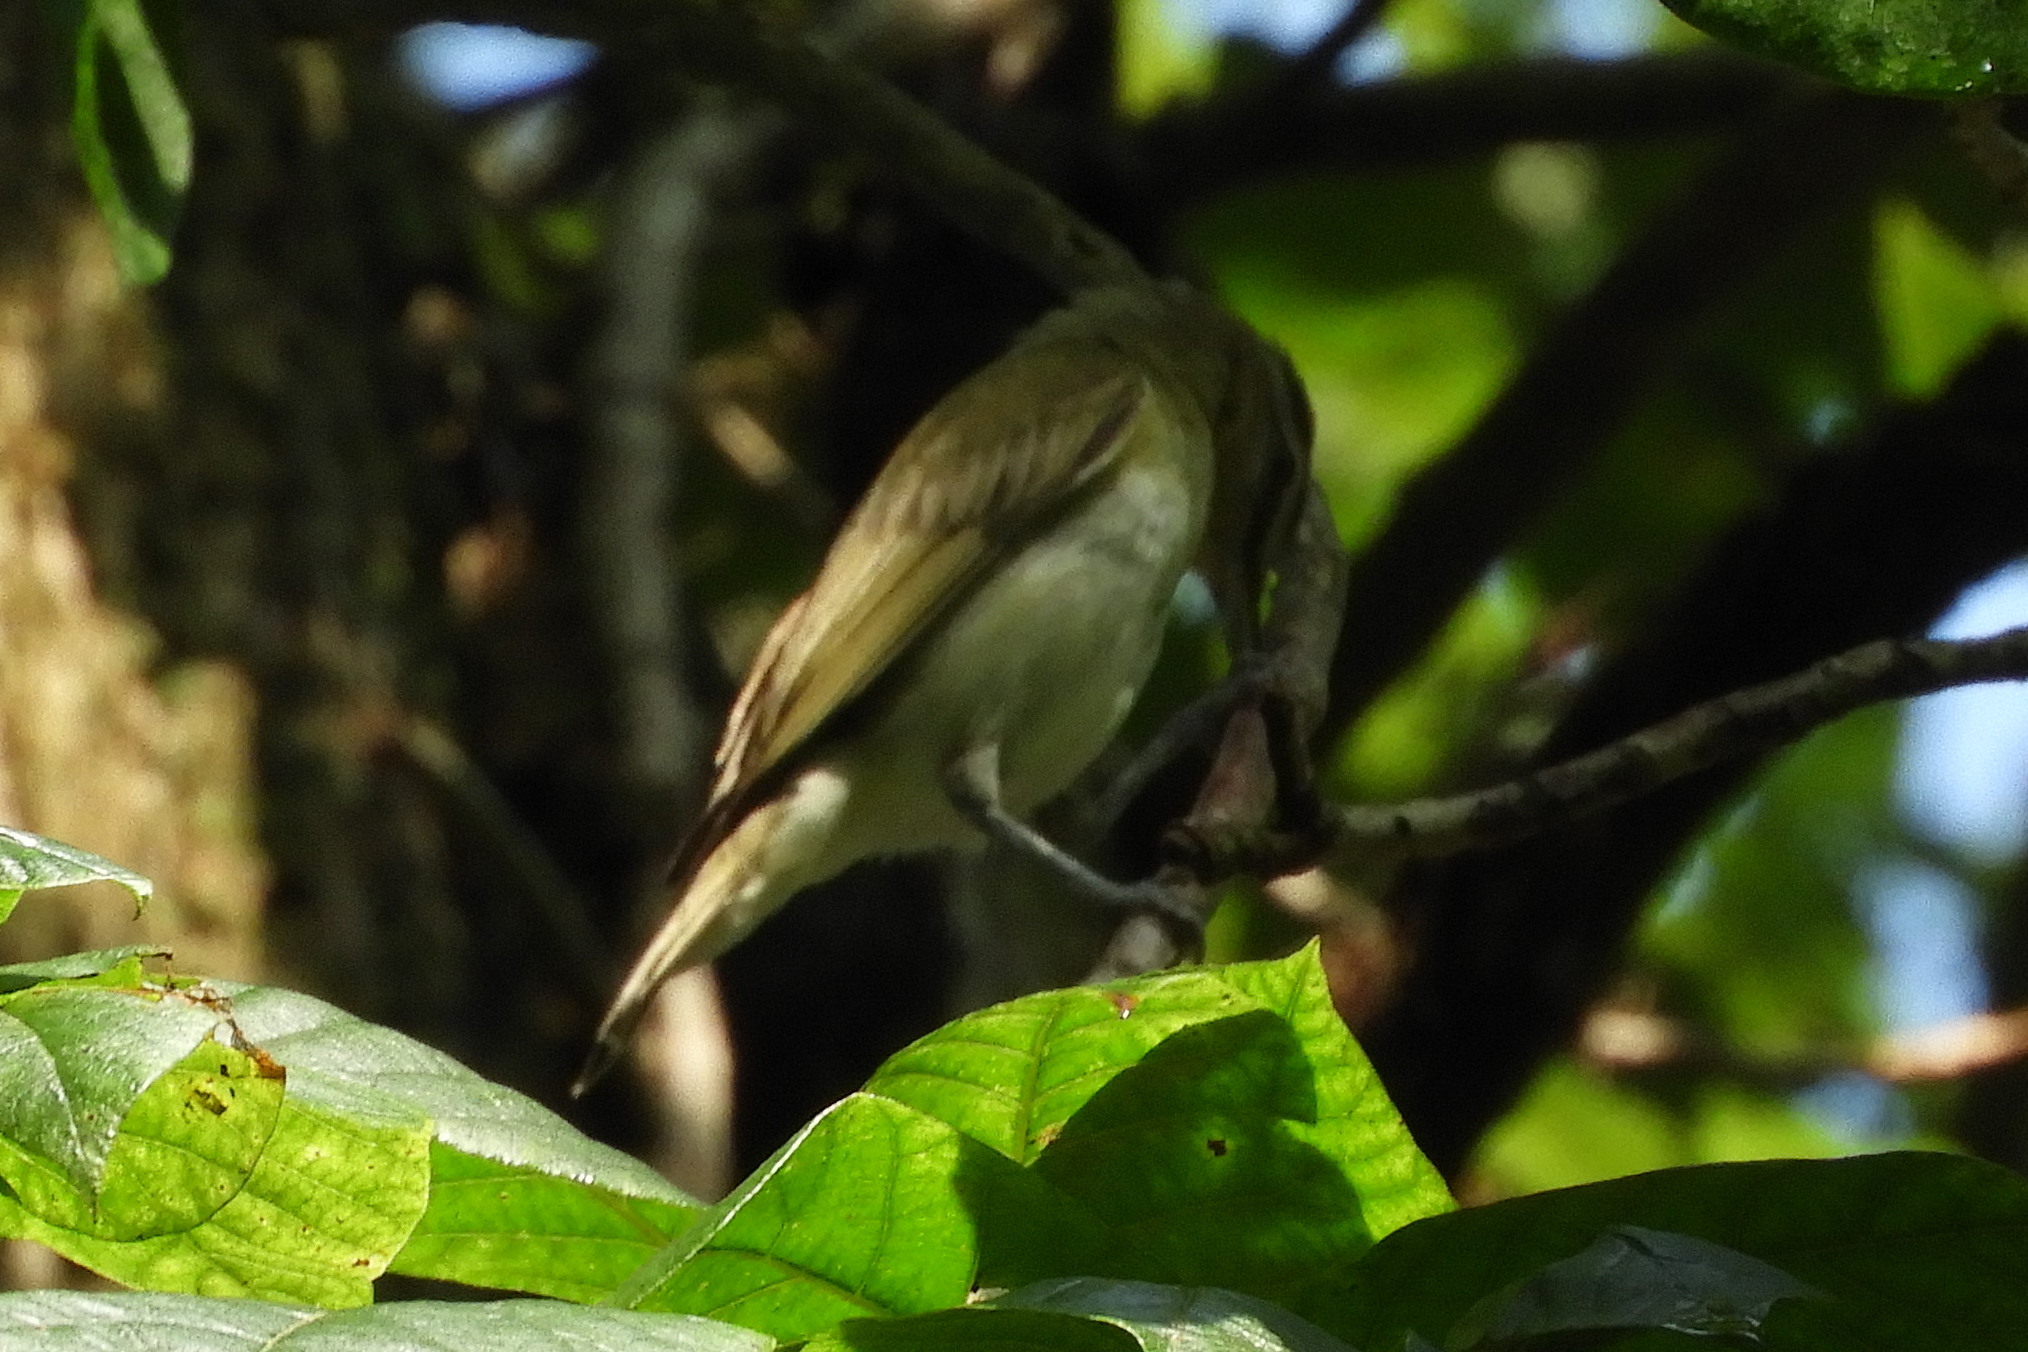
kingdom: Animalia
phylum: Chordata
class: Aves
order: Passeriformes
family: Vireonidae
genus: Vireo
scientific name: Vireo olivaceus
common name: Red-eyed vireo
